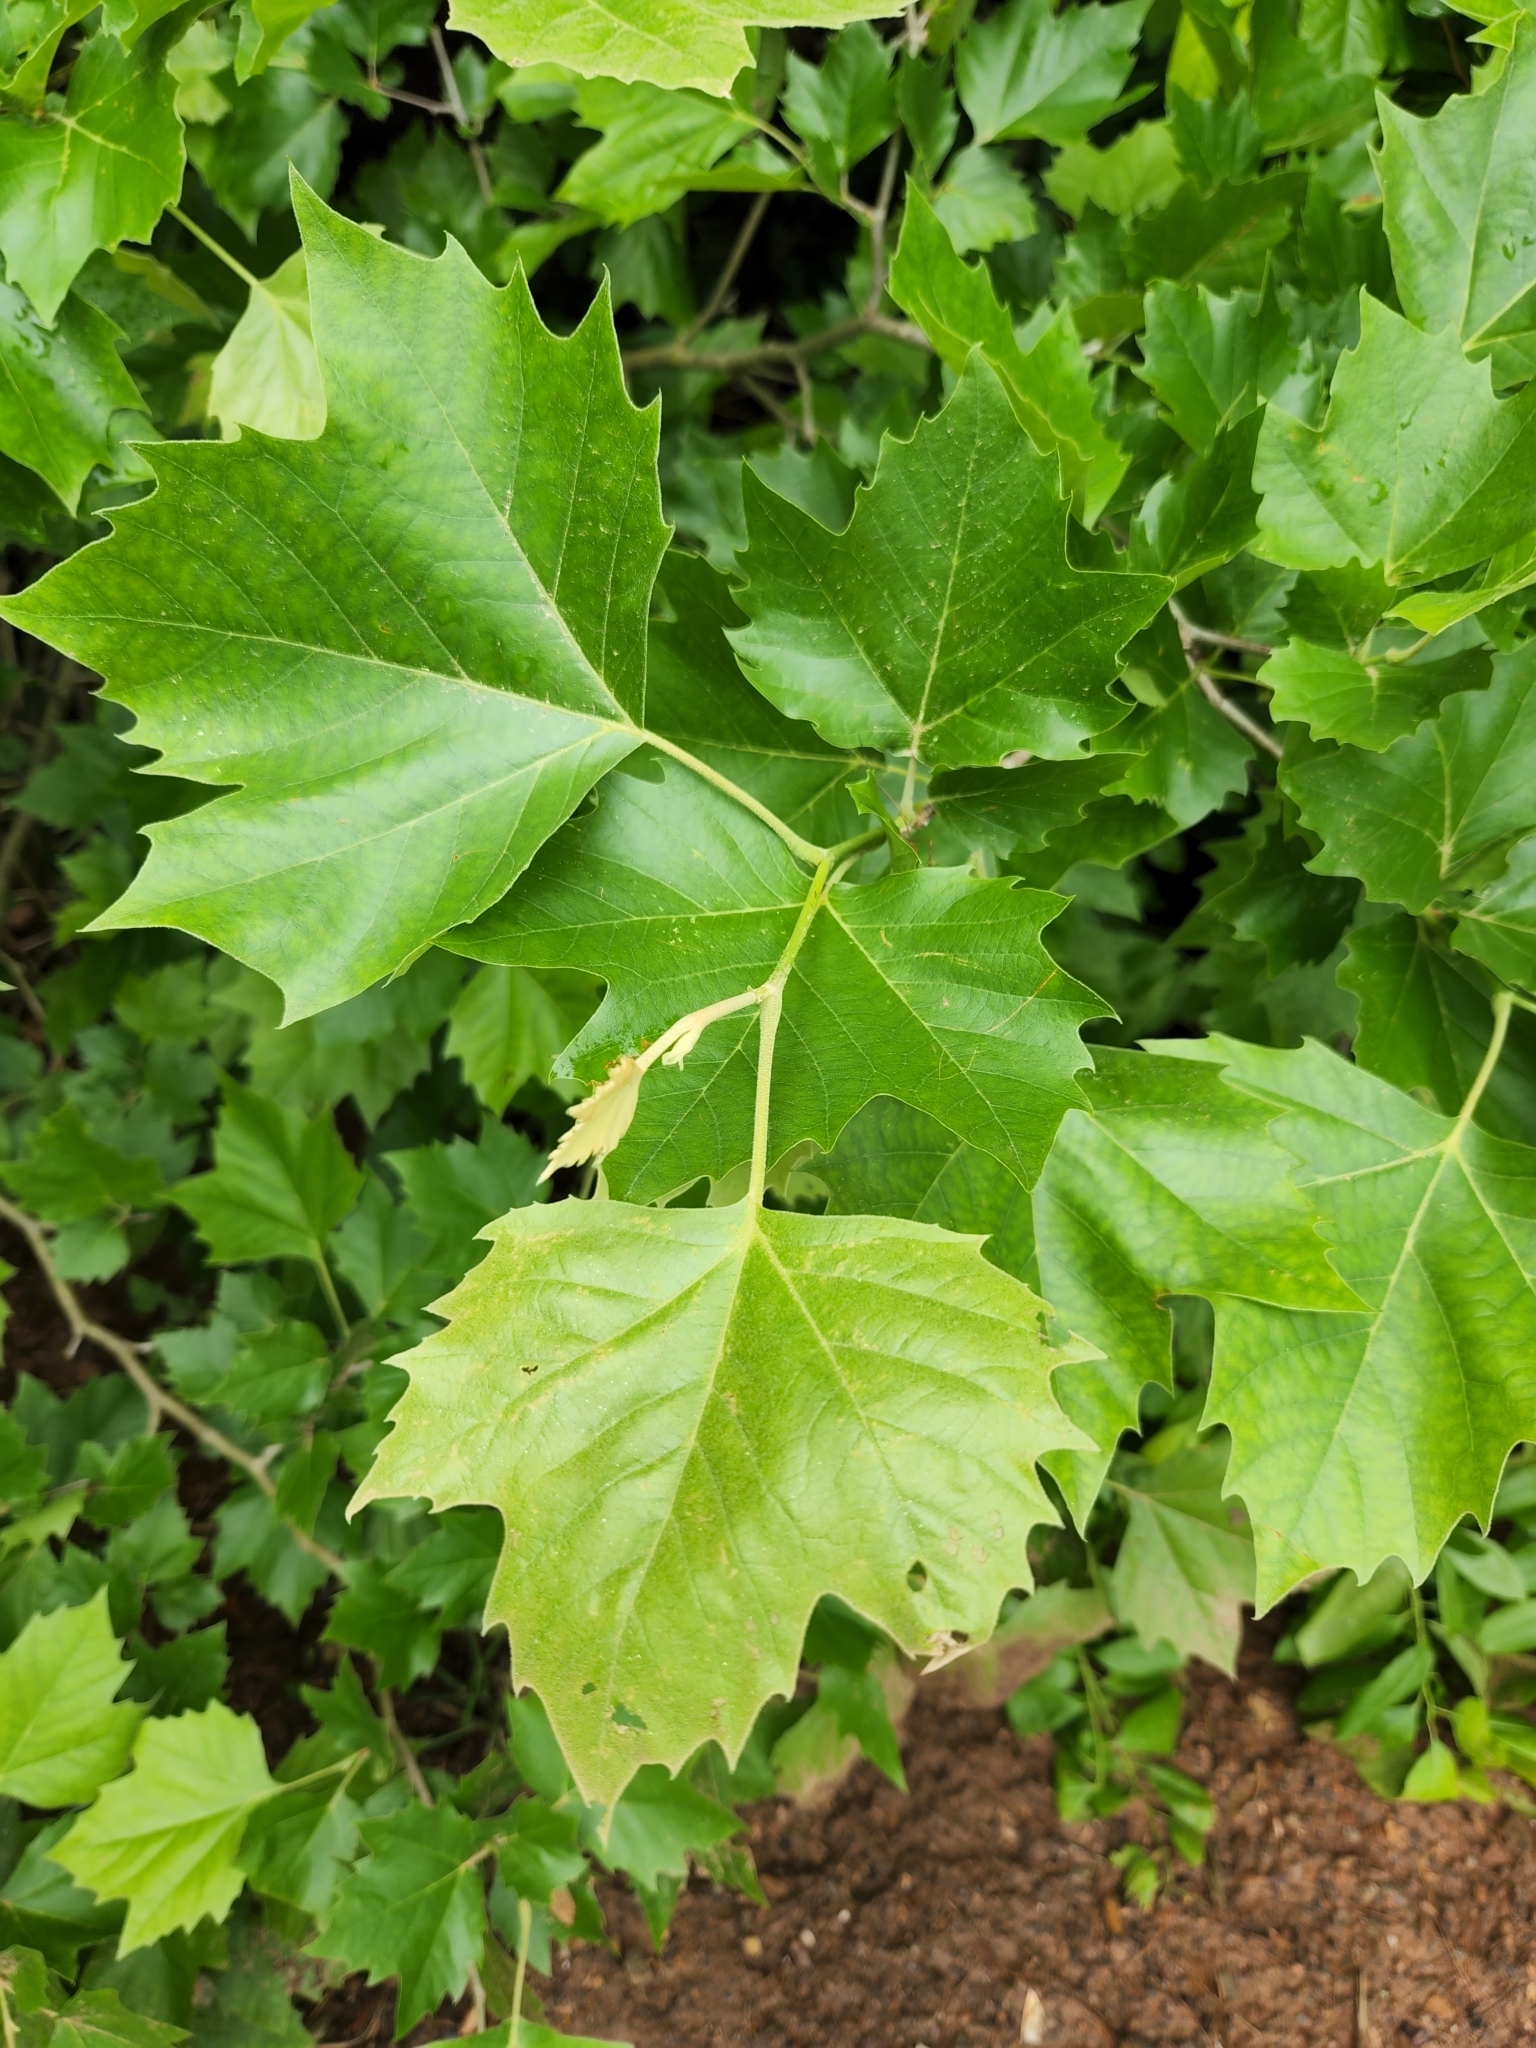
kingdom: Plantae
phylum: Tracheophyta
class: Magnoliopsida
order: Proteales
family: Platanaceae
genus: Platanus
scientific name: Platanus occidentalis
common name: American sycamore
